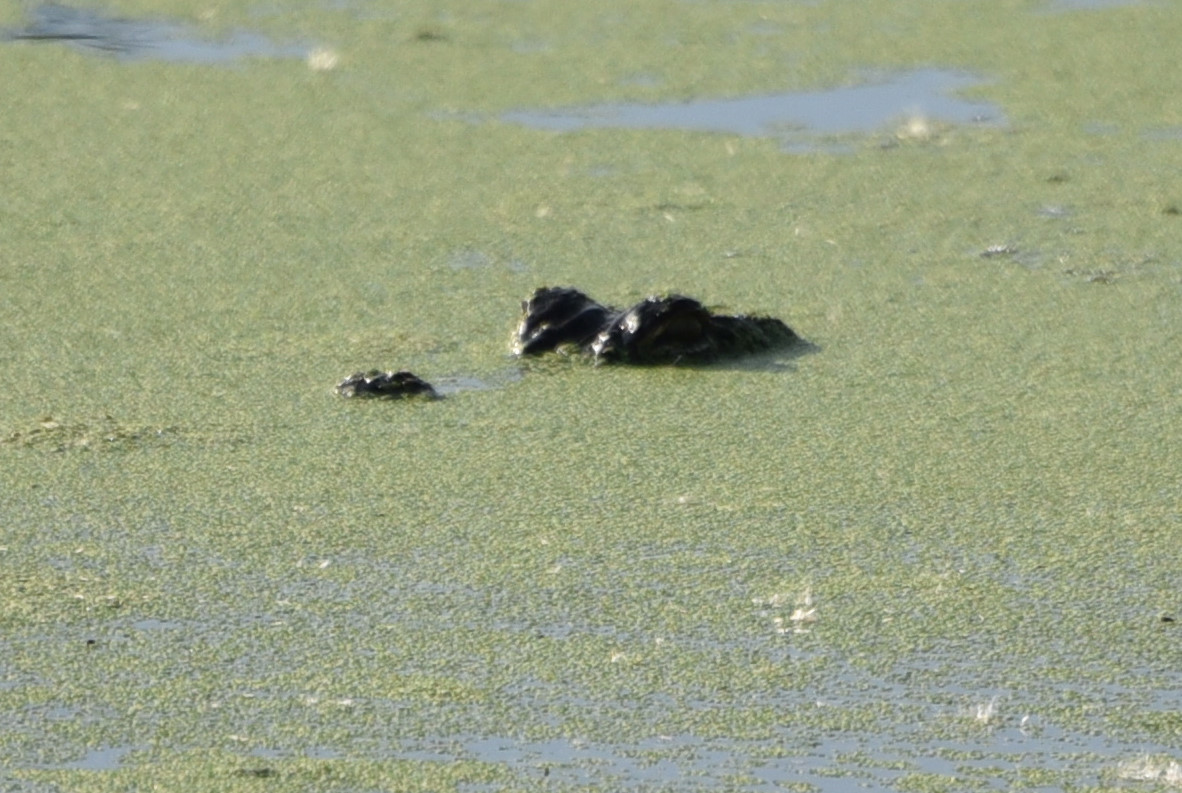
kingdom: Animalia
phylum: Chordata
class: Crocodylia
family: Alligatoridae
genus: Alligator
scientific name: Alligator mississippiensis
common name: American alligator
